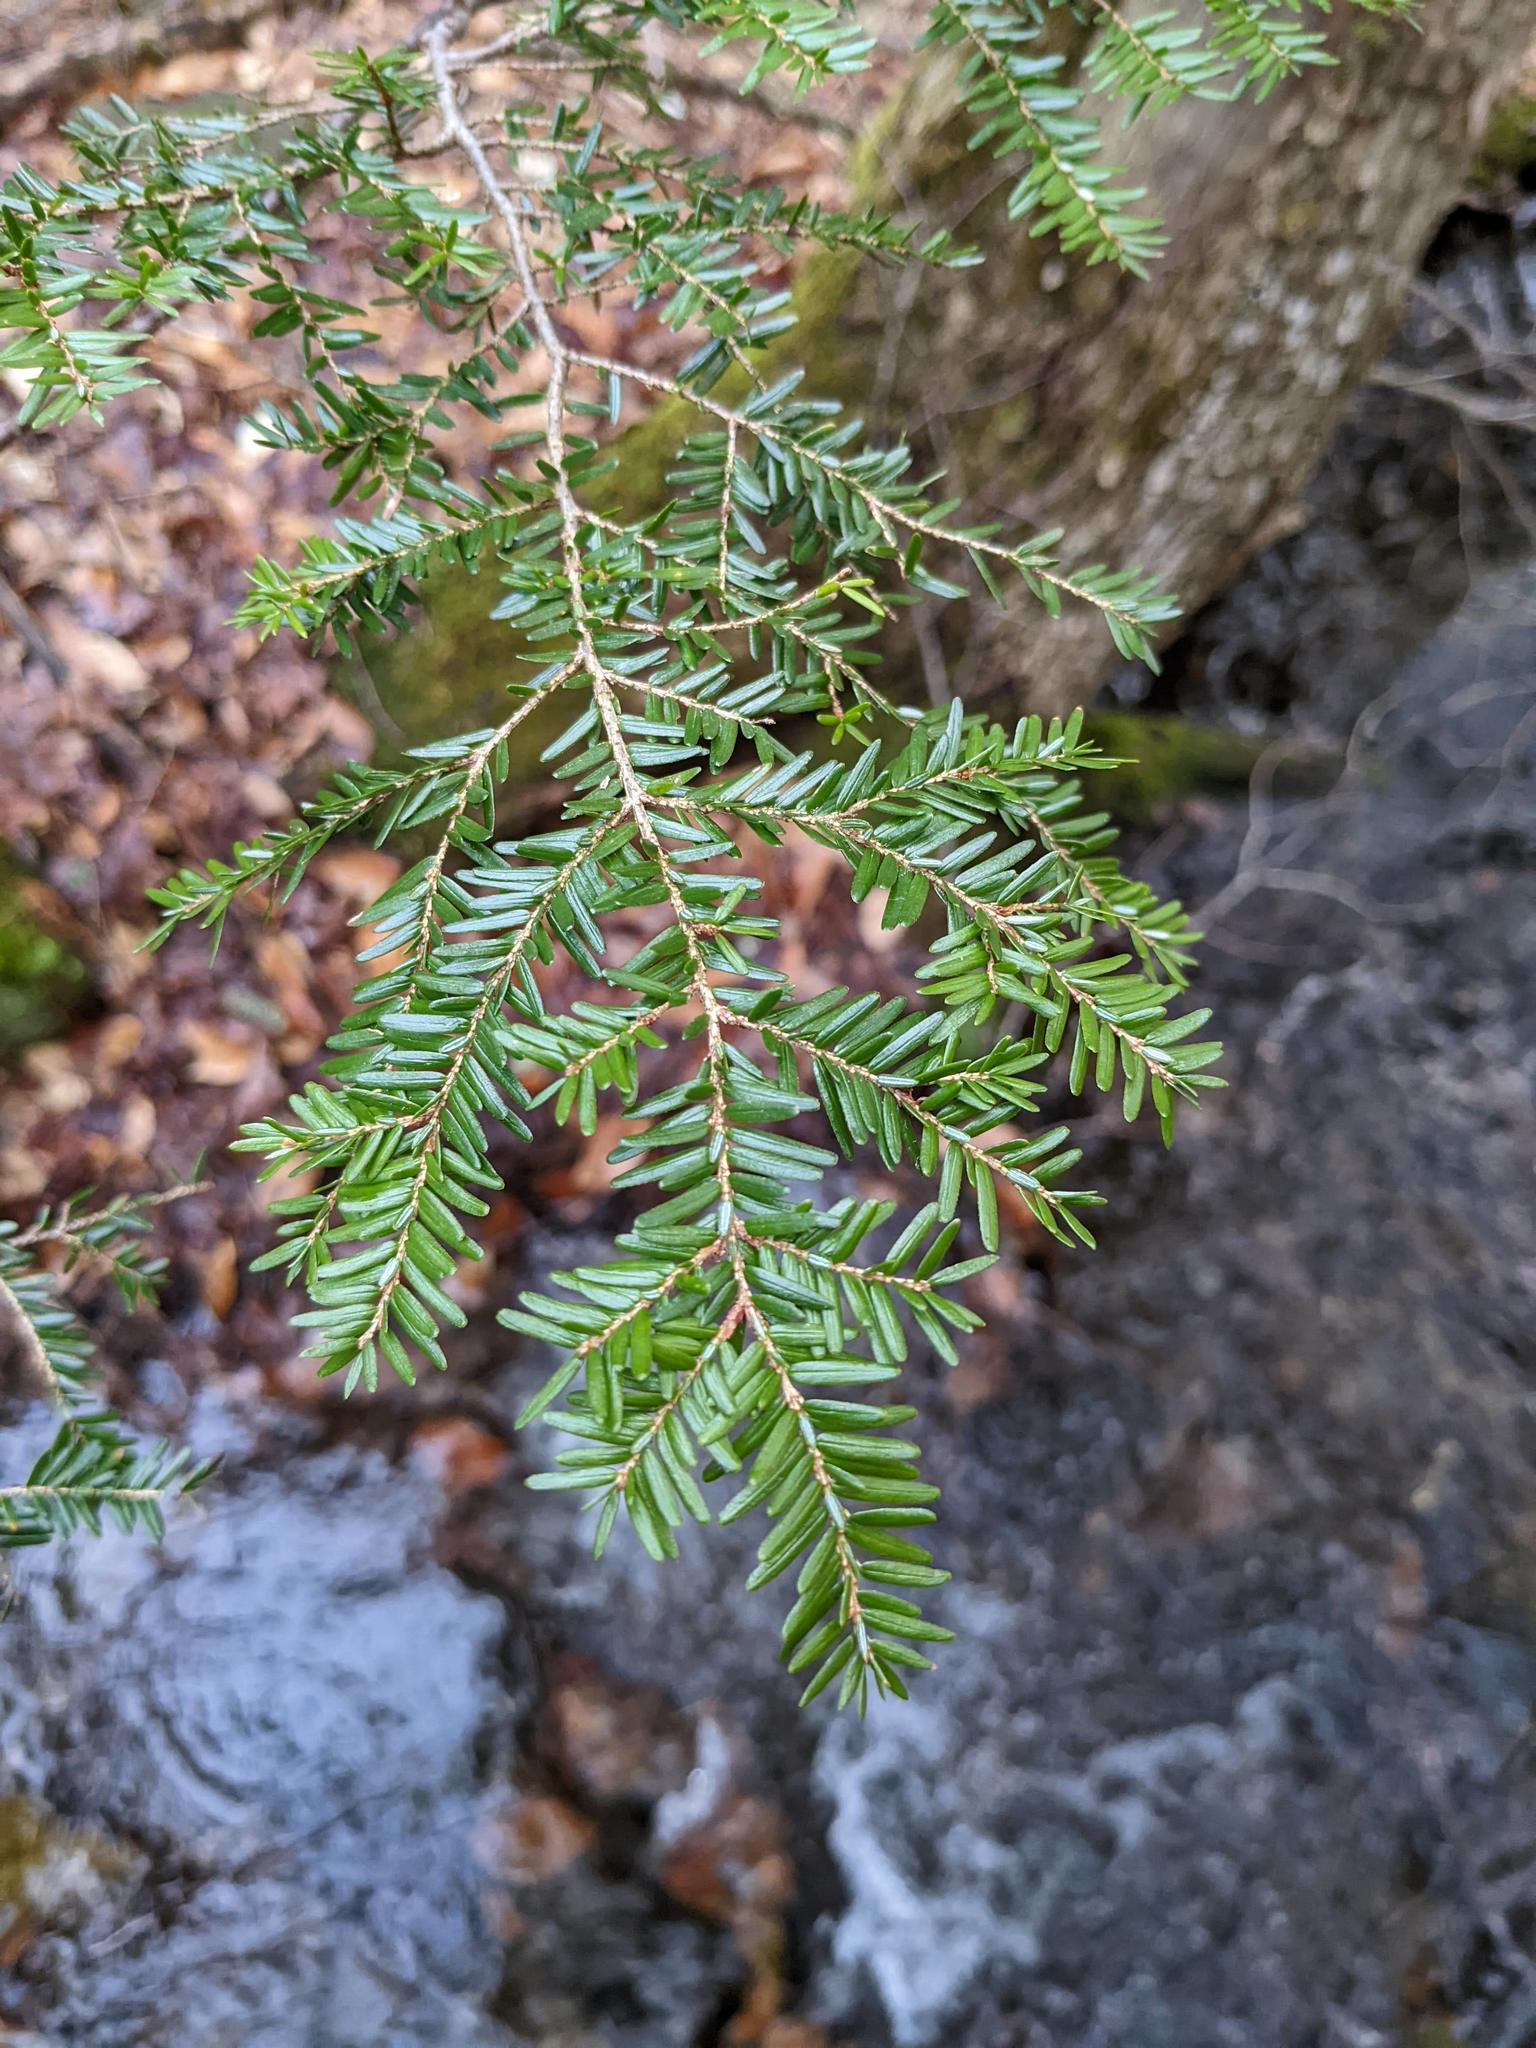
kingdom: Plantae
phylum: Tracheophyta
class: Pinopsida
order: Pinales
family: Pinaceae
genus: Tsuga
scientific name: Tsuga canadensis
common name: Eastern hemlock
